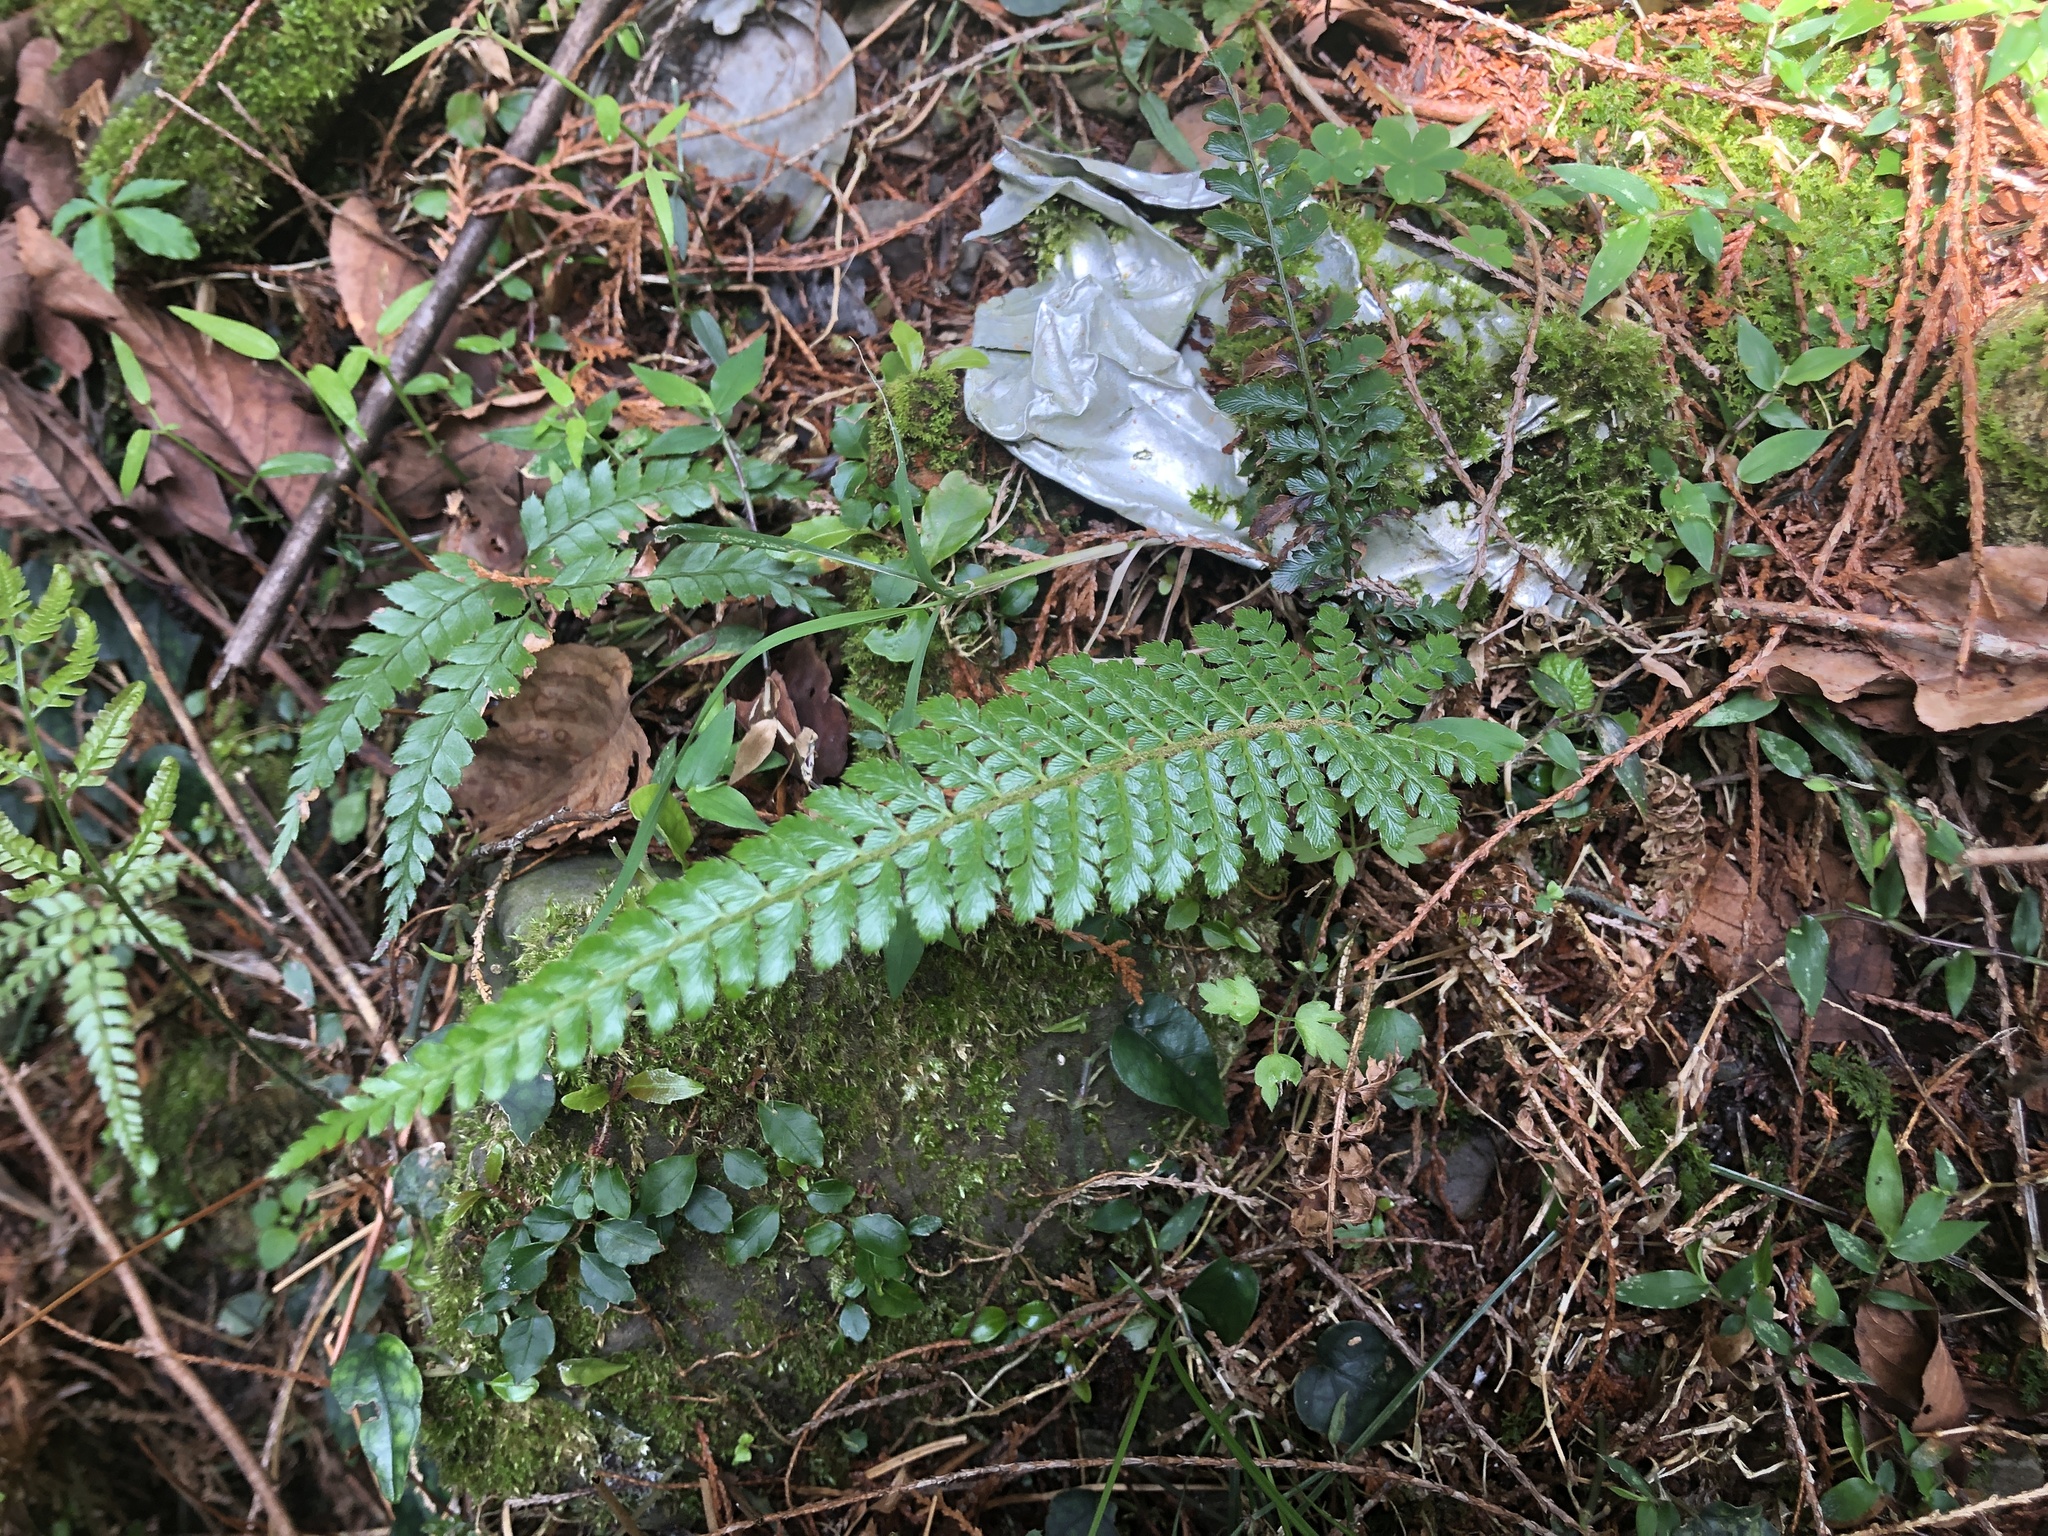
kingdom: Plantae
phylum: Tracheophyta
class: Polypodiopsida
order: Polypodiales
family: Dryopteridaceae
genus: Polystichum
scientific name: Polystichum parvipinnulum
